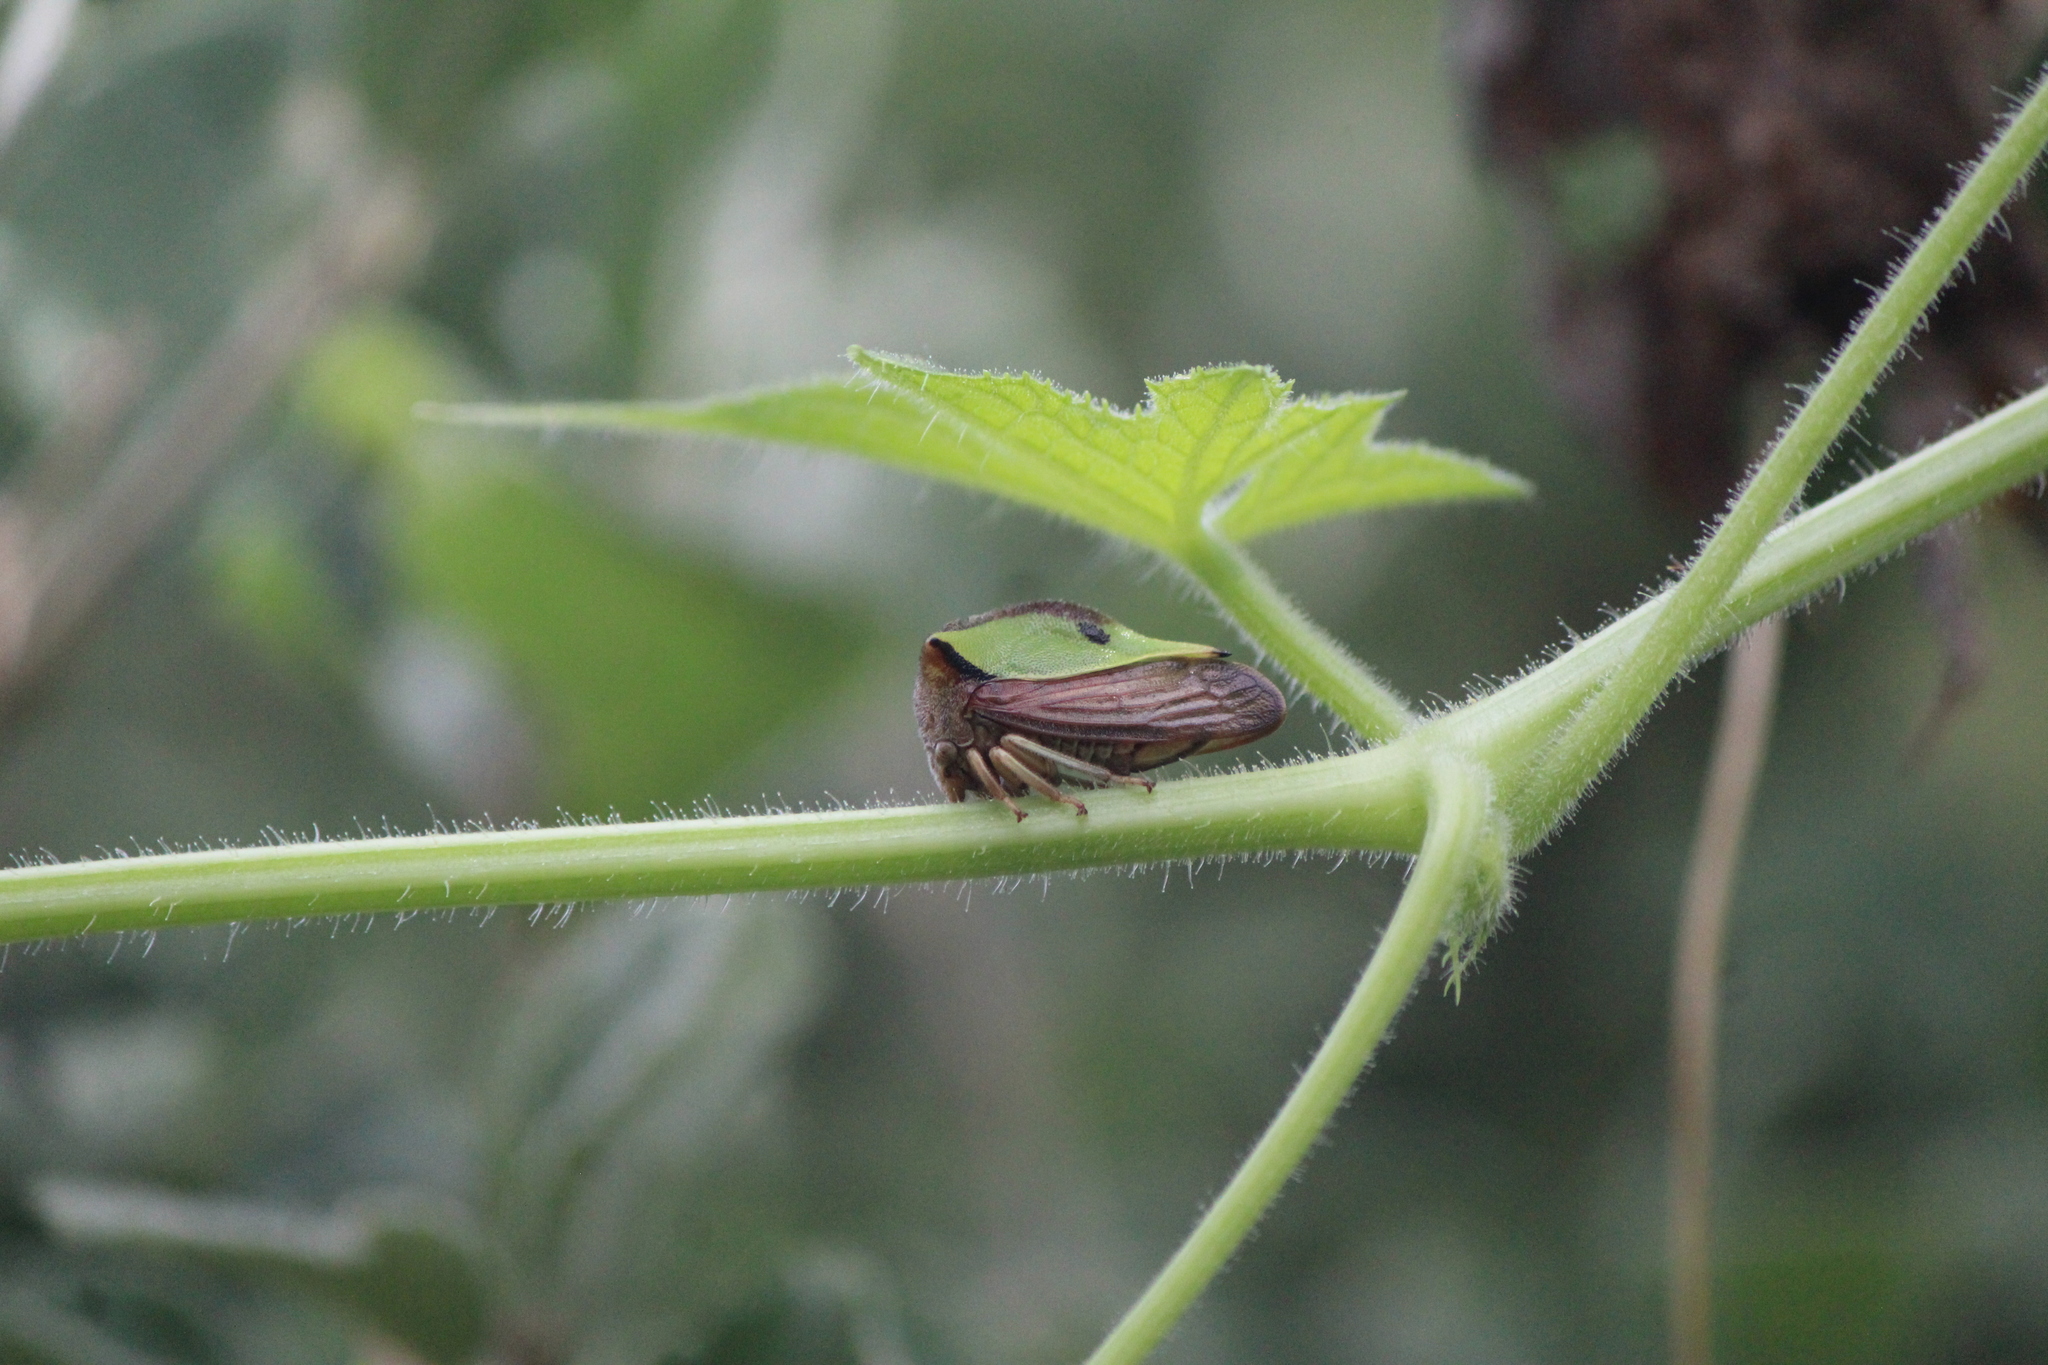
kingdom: Animalia
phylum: Arthropoda
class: Insecta
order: Hemiptera
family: Membracidae
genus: Hyphinoe
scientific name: Hyphinoe camelus
